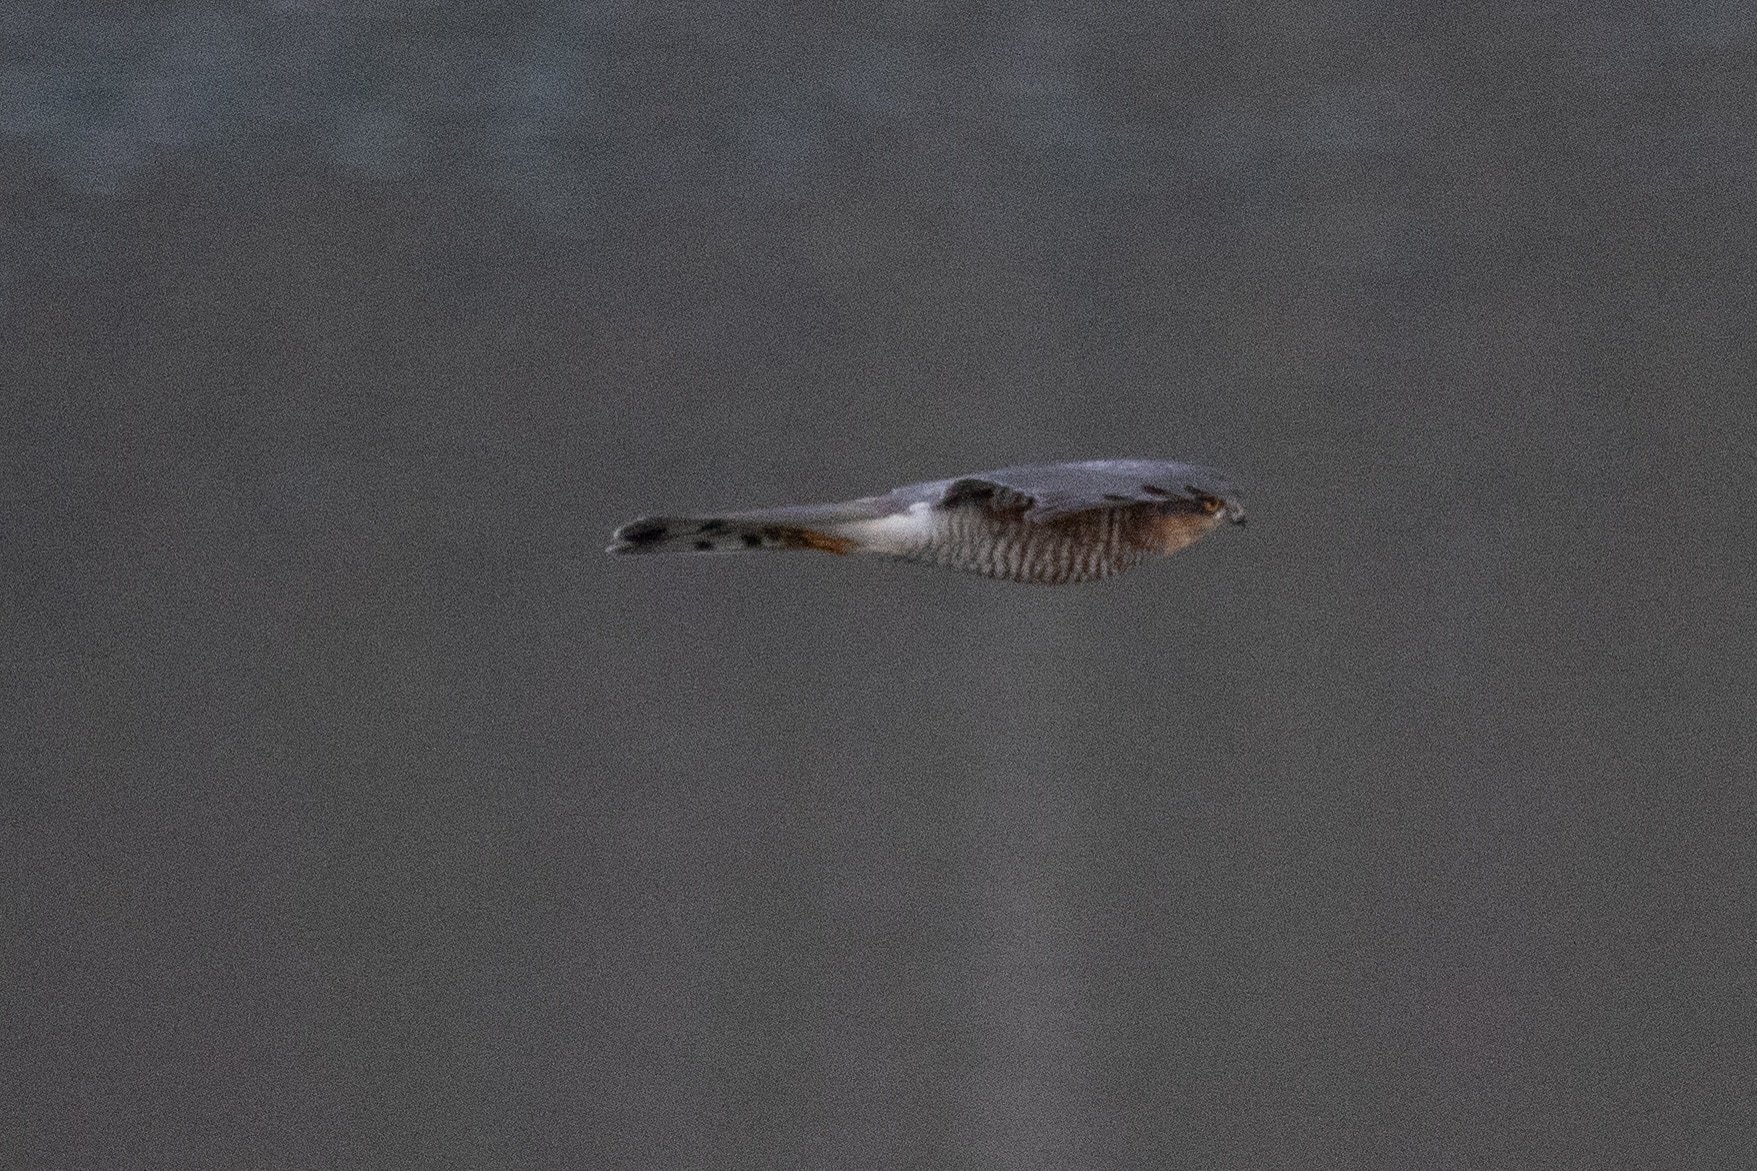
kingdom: Animalia
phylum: Chordata
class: Aves
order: Accipitriformes
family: Accipitridae
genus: Accipiter
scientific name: Accipiter nisus
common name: Eurasian sparrowhawk
